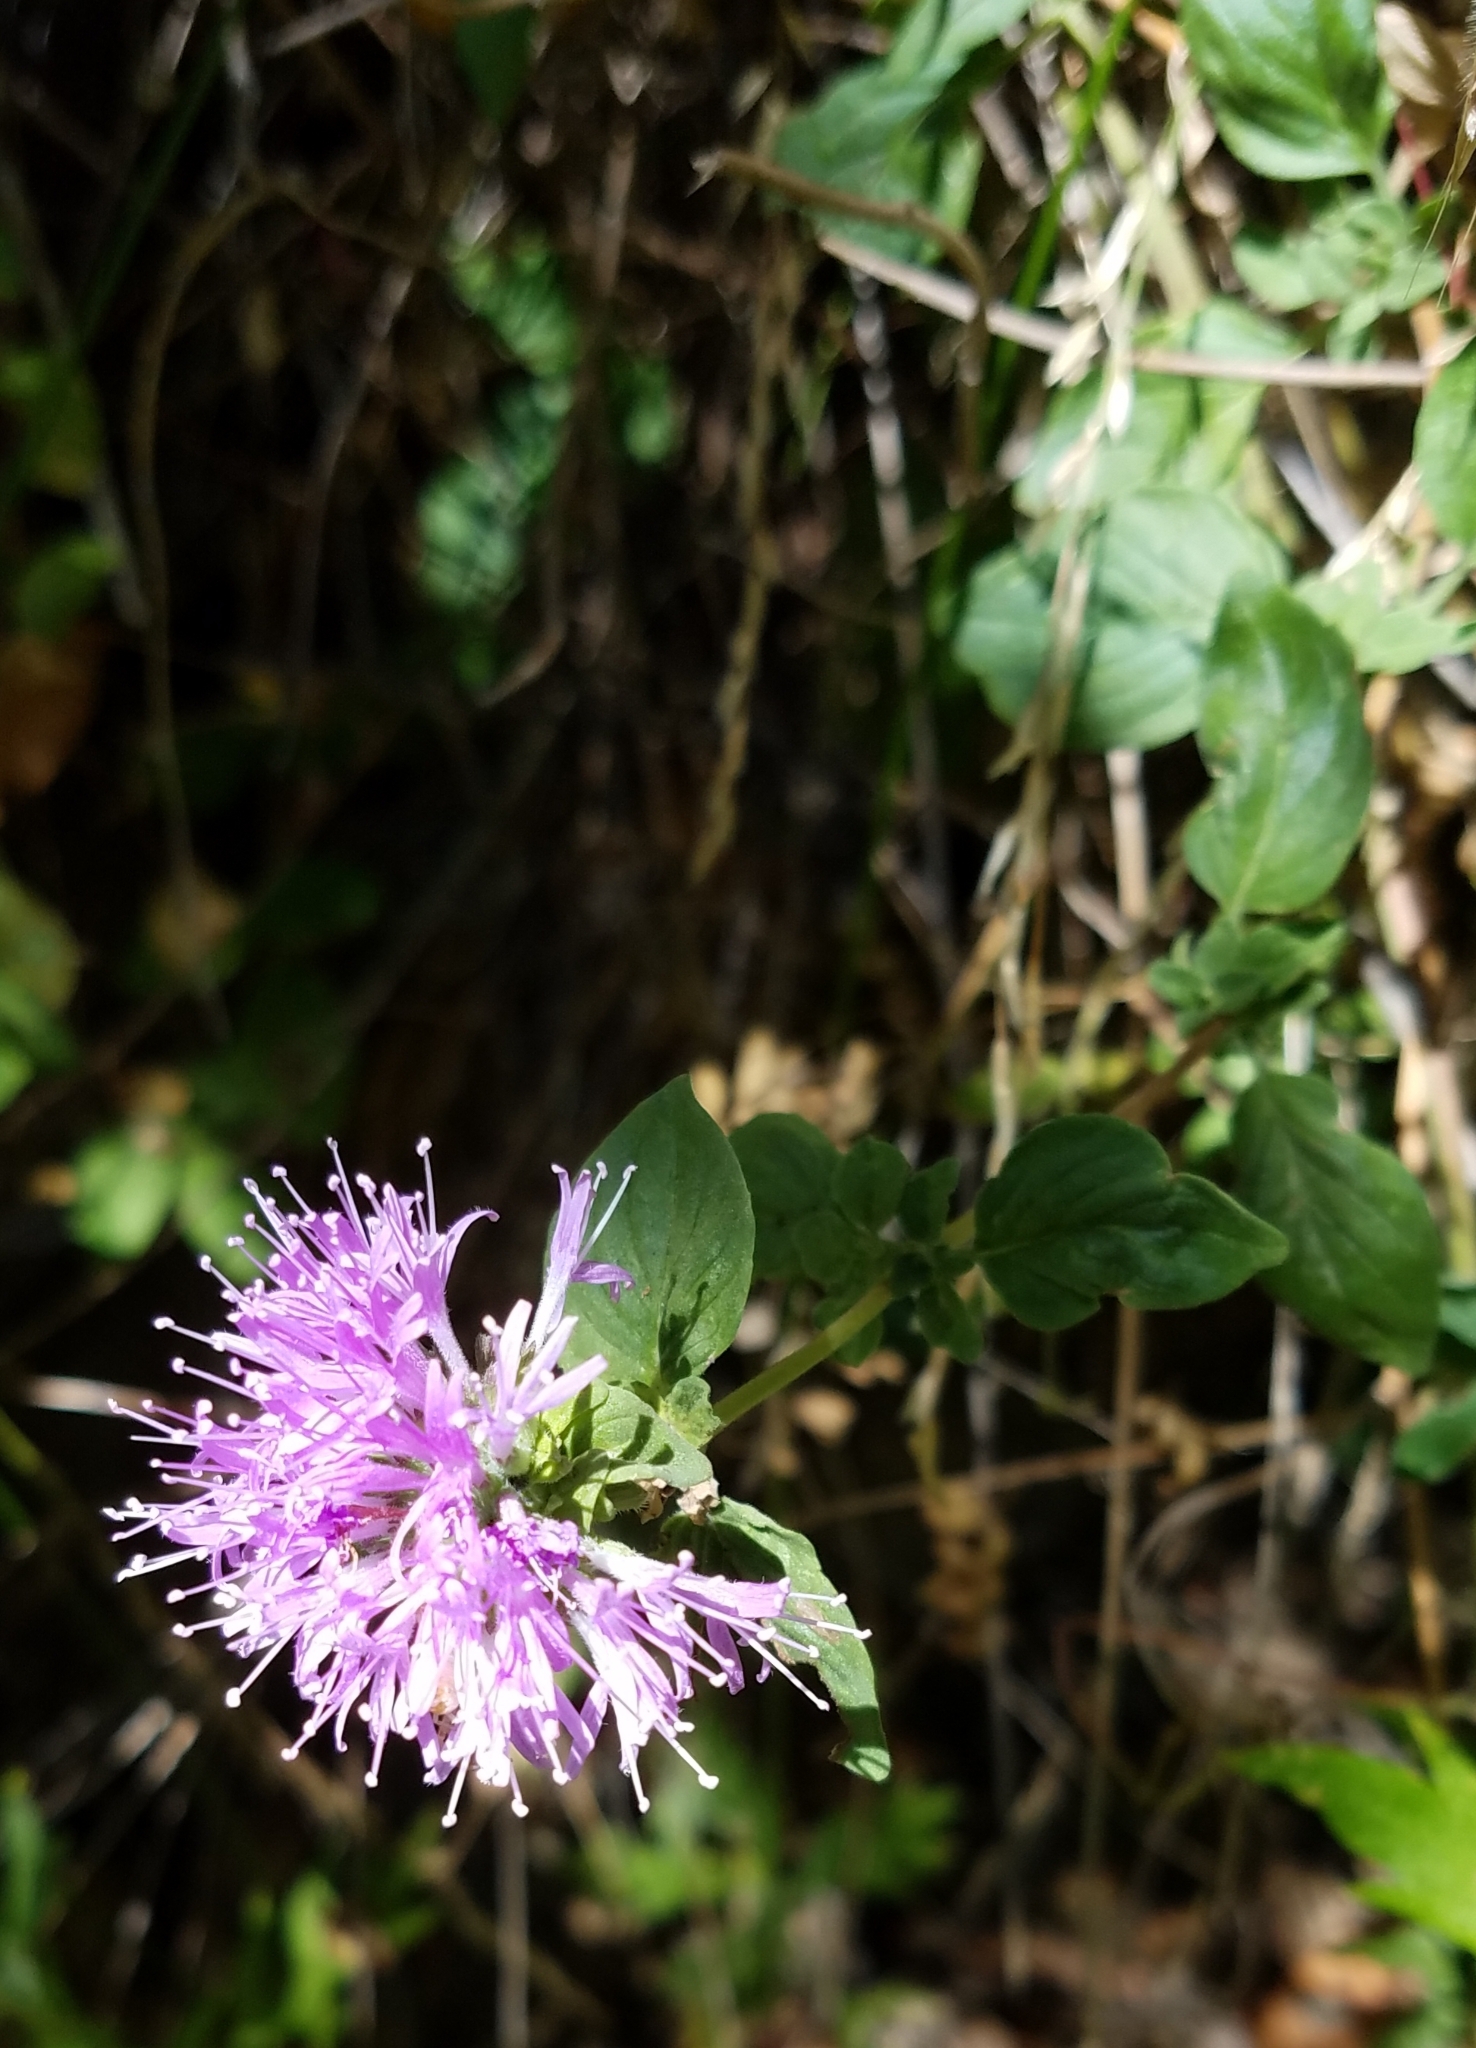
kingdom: Plantae
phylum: Tracheophyta
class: Magnoliopsida
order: Lamiales
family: Lamiaceae
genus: Monardella
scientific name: Monardella odoratissima
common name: Pacific monardella
